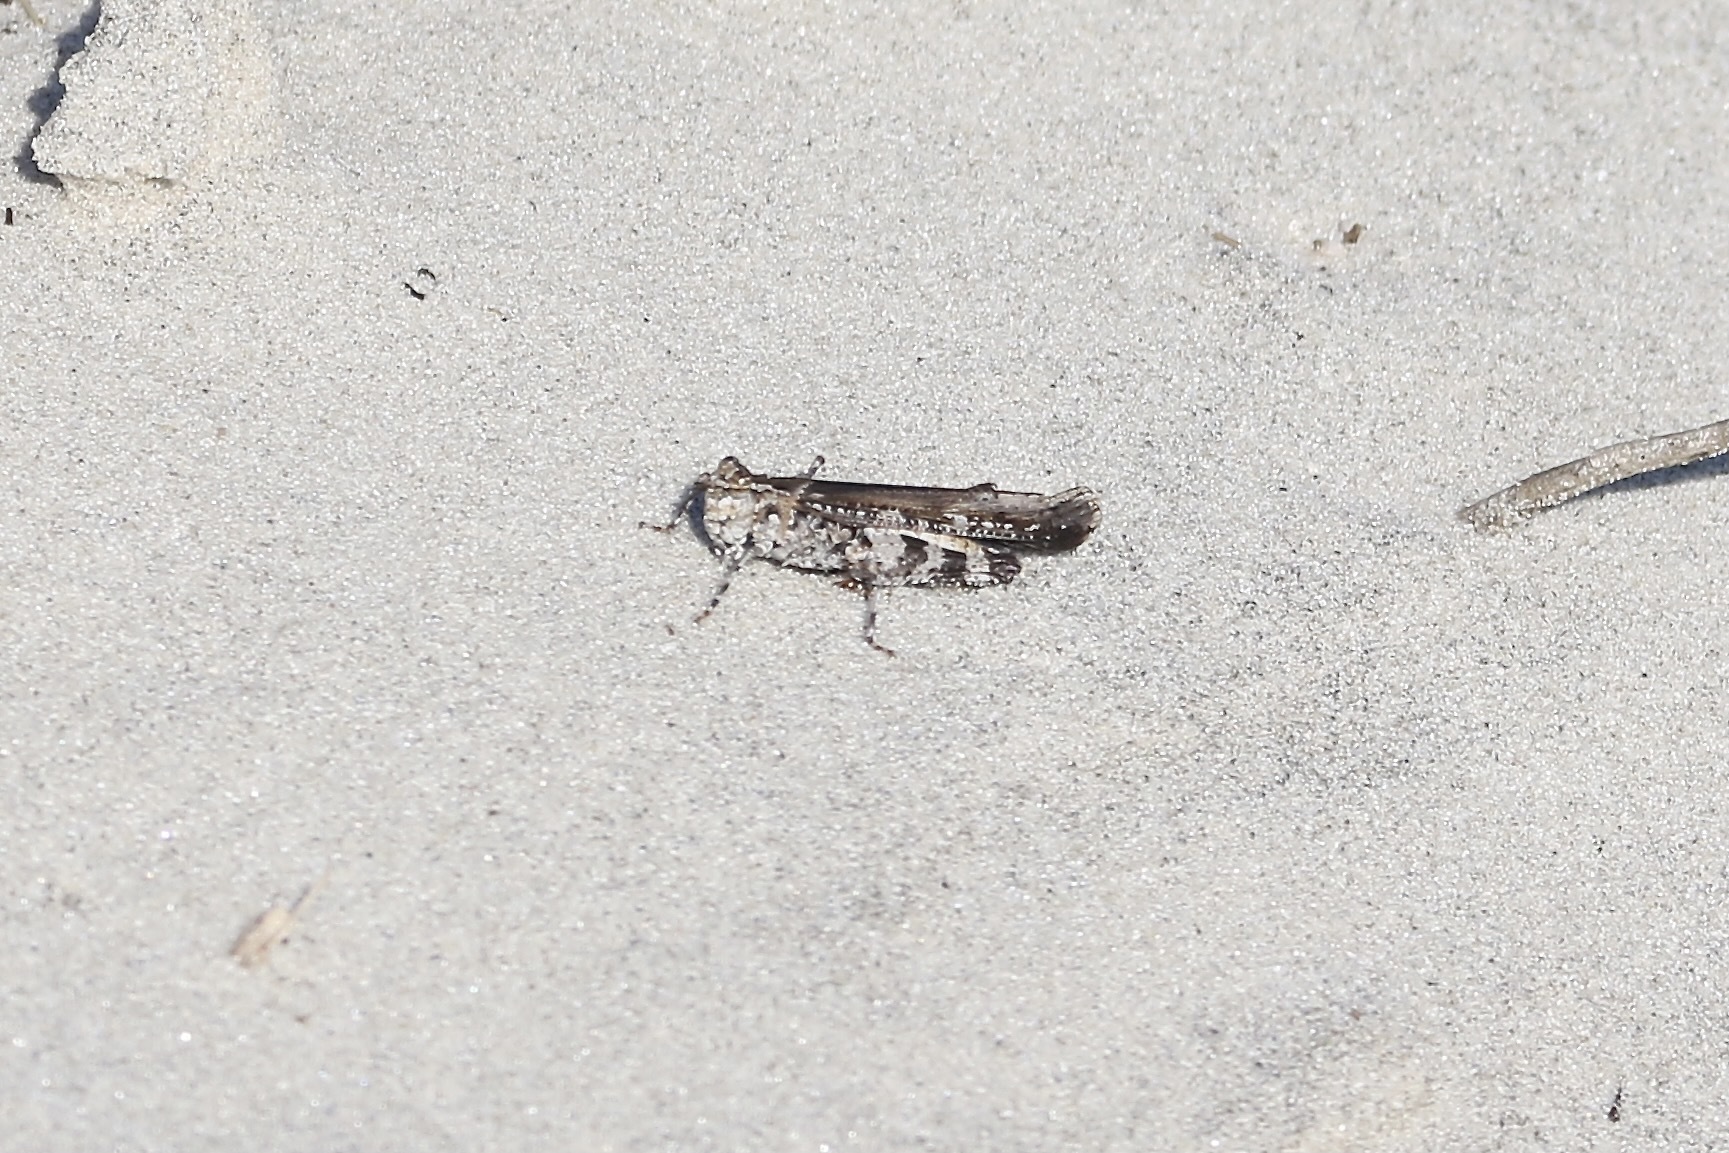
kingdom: Animalia
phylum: Arthropoda
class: Insecta
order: Orthoptera
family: Acrididae
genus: Psinidia
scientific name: Psinidia fenestralis
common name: Long-horned locust
